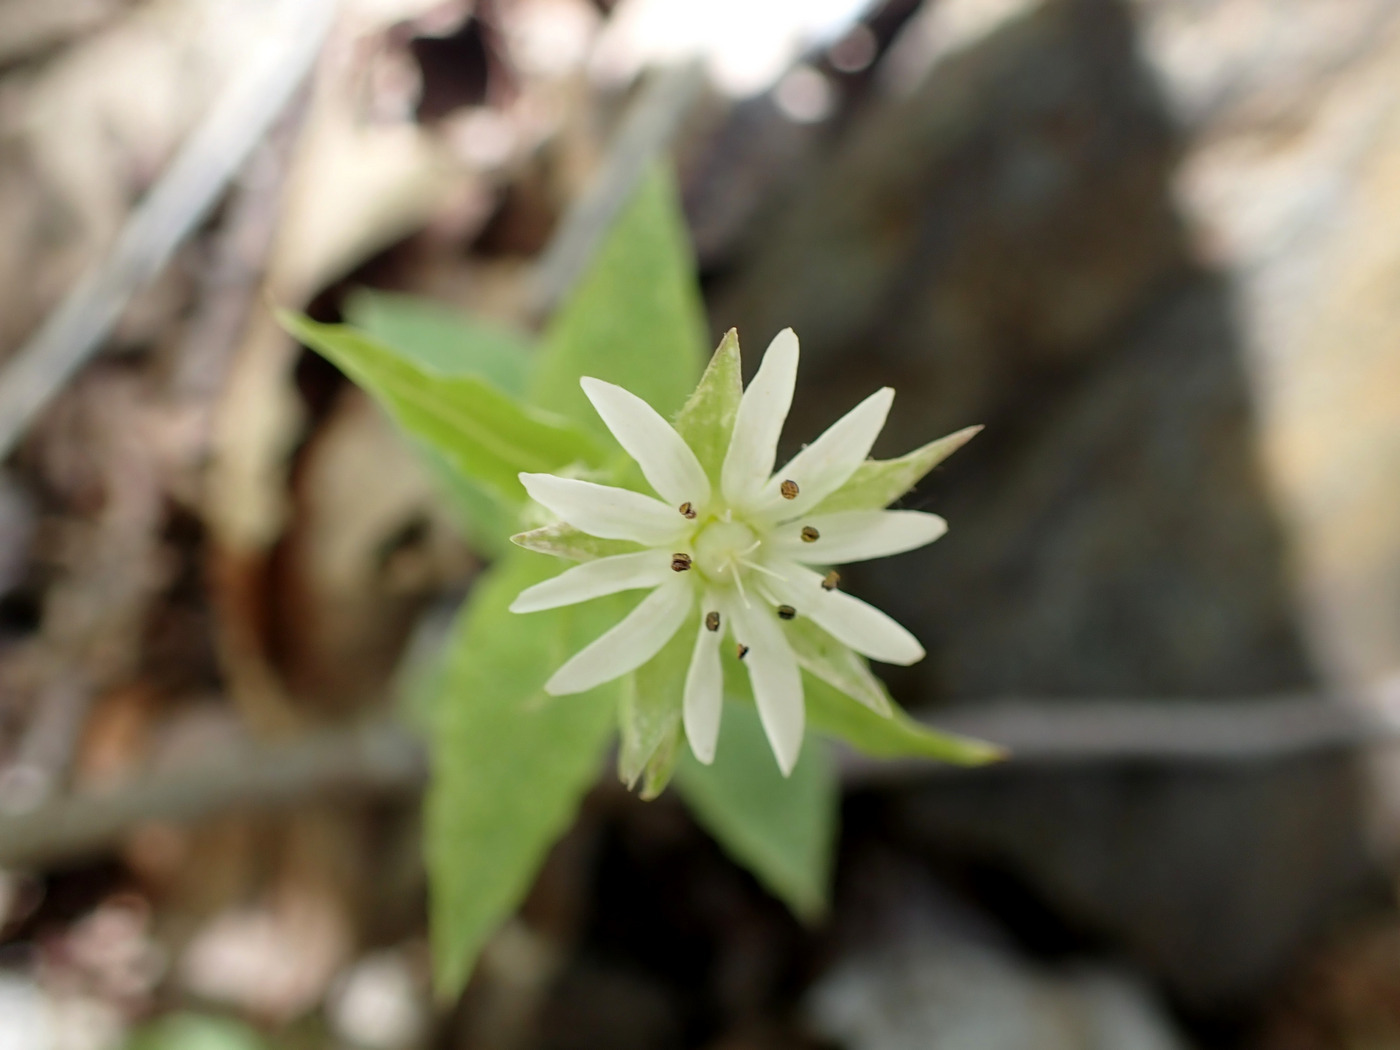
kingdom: Plantae
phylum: Tracheophyta
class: Magnoliopsida
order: Caryophyllales
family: Caryophyllaceae
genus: Stellaria
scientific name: Stellaria corei
